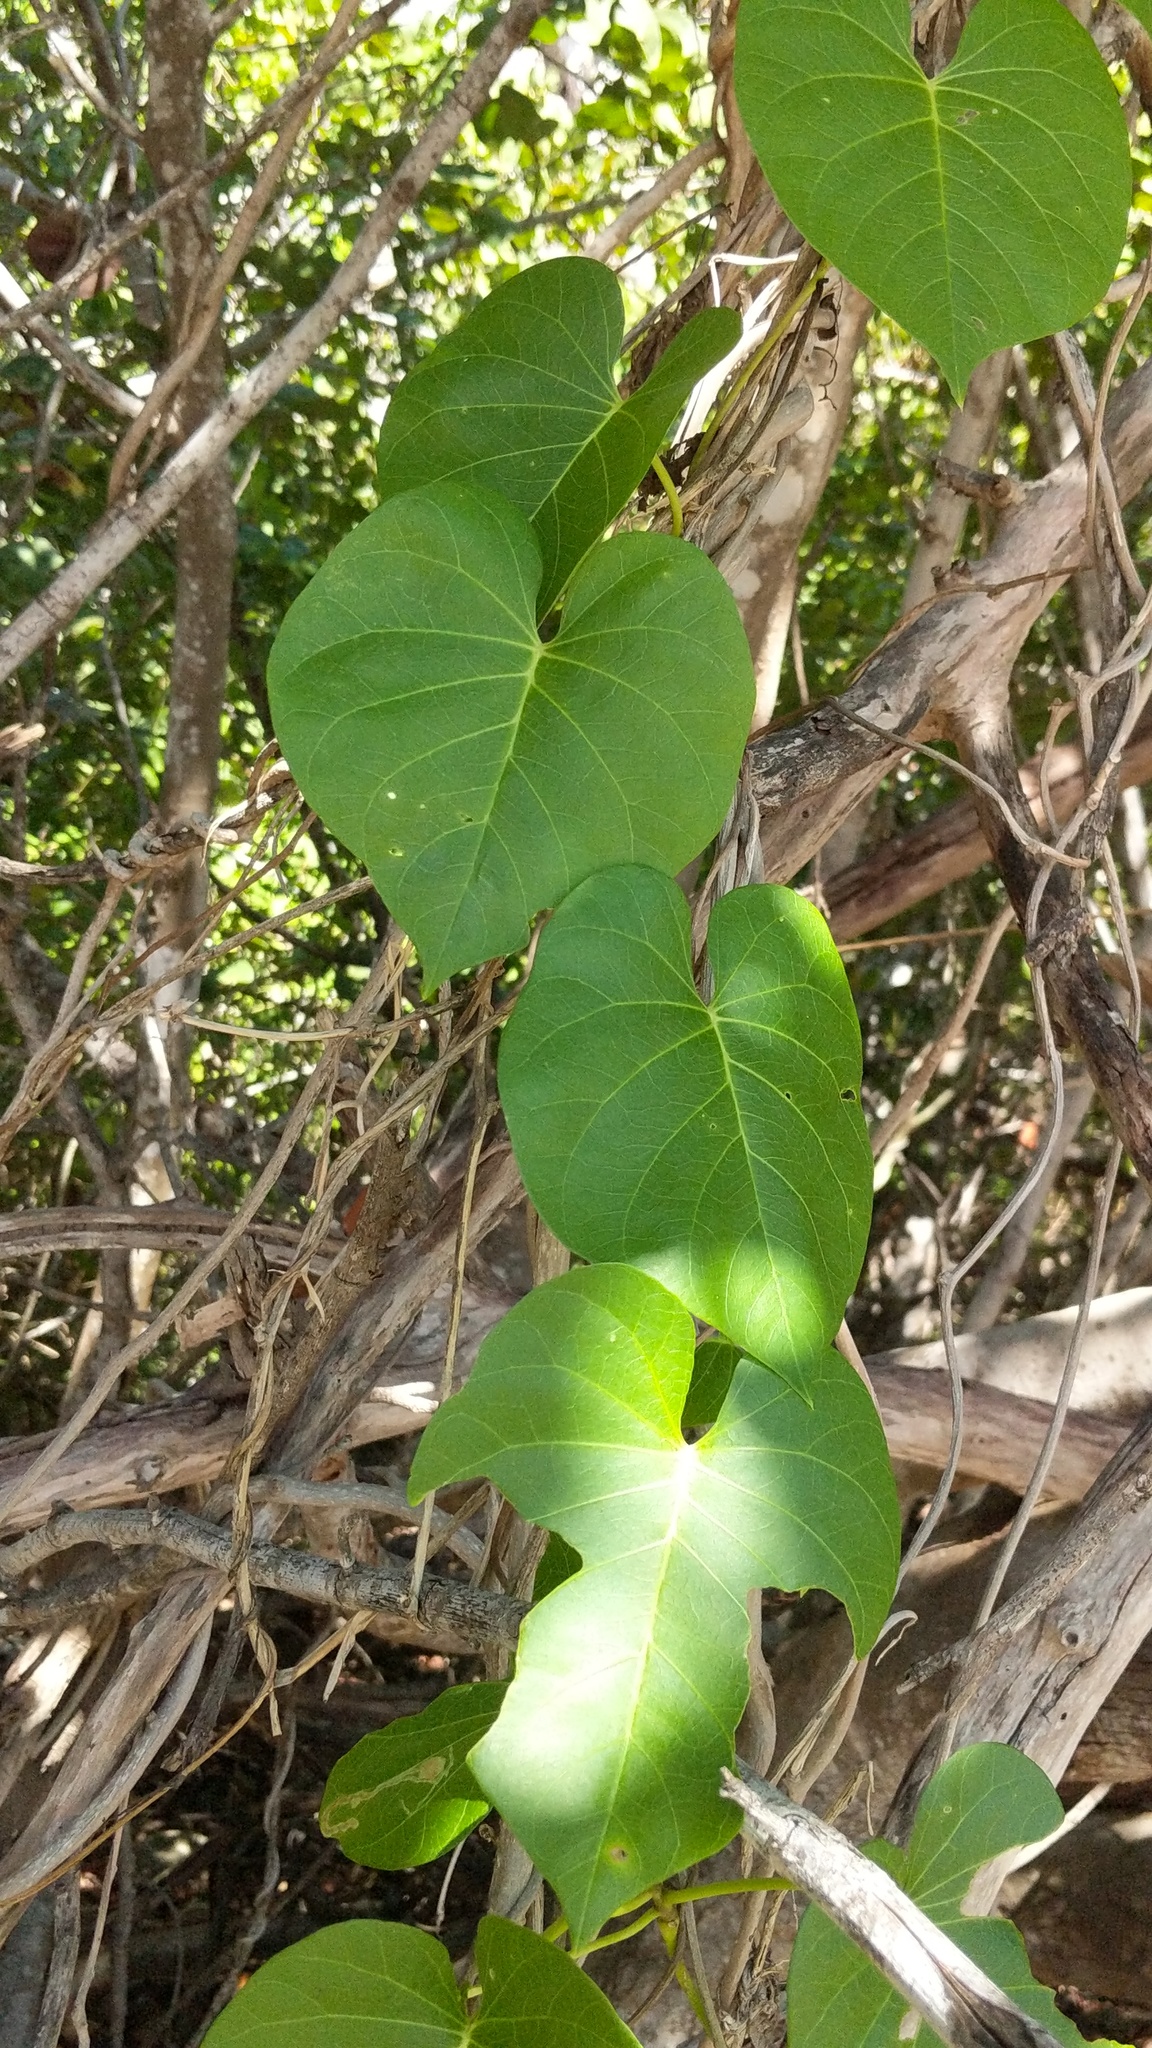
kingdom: Plantae
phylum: Tracheophyta
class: Magnoliopsida
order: Solanales
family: Convolvulaceae
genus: Ipomoea
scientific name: Ipomoea violacea
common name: Beach moonflower
